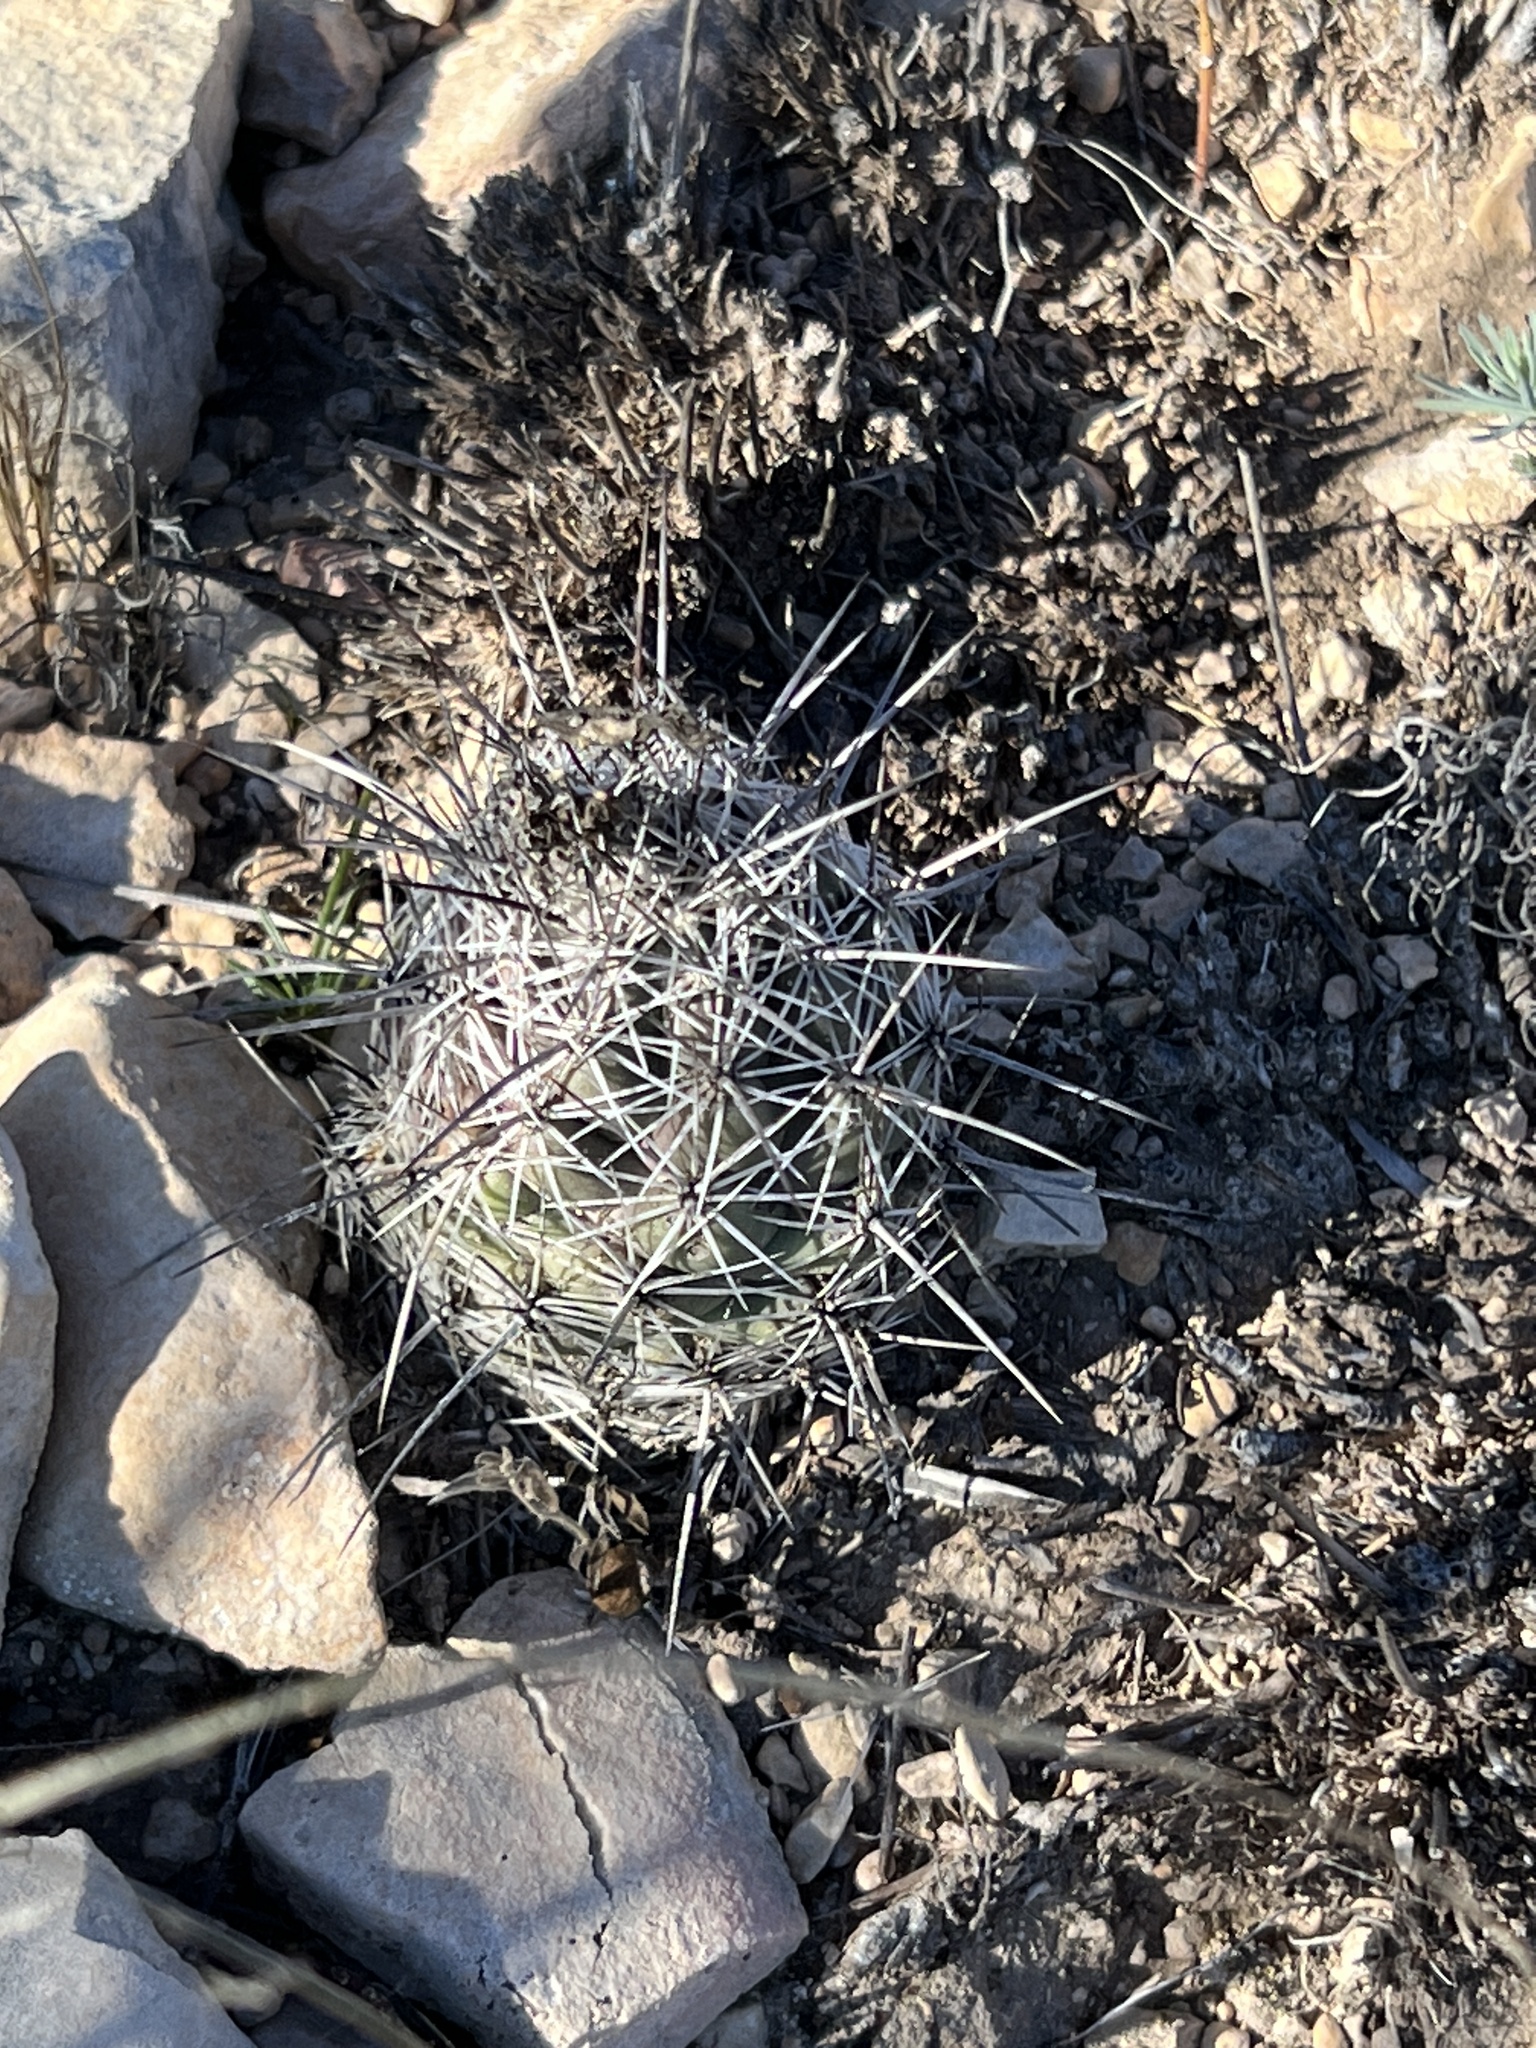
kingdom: Plantae
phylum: Tracheophyta
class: Magnoliopsida
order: Caryophyllales
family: Cactaceae
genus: Cochemiea
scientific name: Cochemiea conoidea
